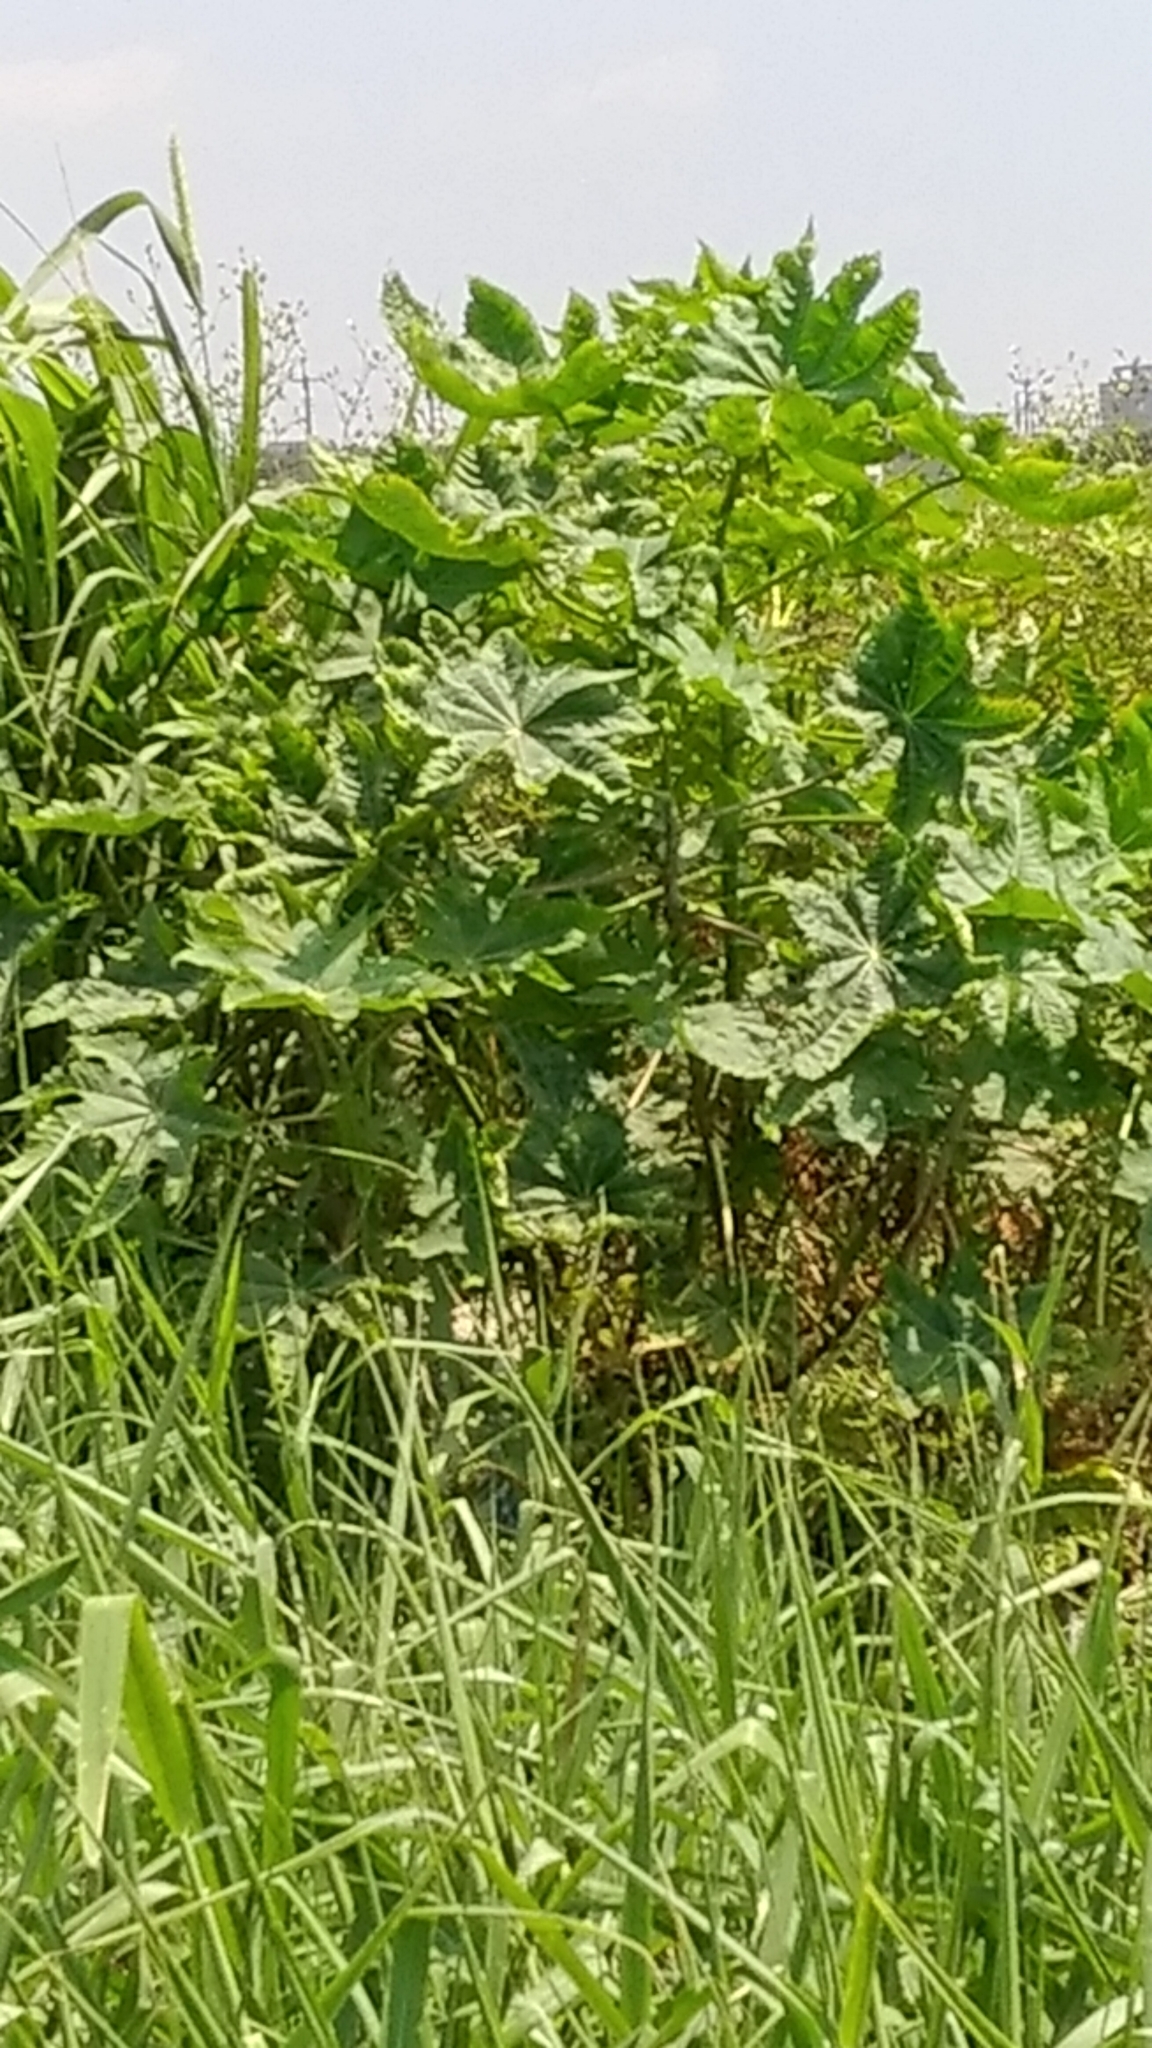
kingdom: Plantae
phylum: Tracheophyta
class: Magnoliopsida
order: Malpighiales
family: Euphorbiaceae
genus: Ricinus
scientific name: Ricinus communis
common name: Castor-oil-plant
